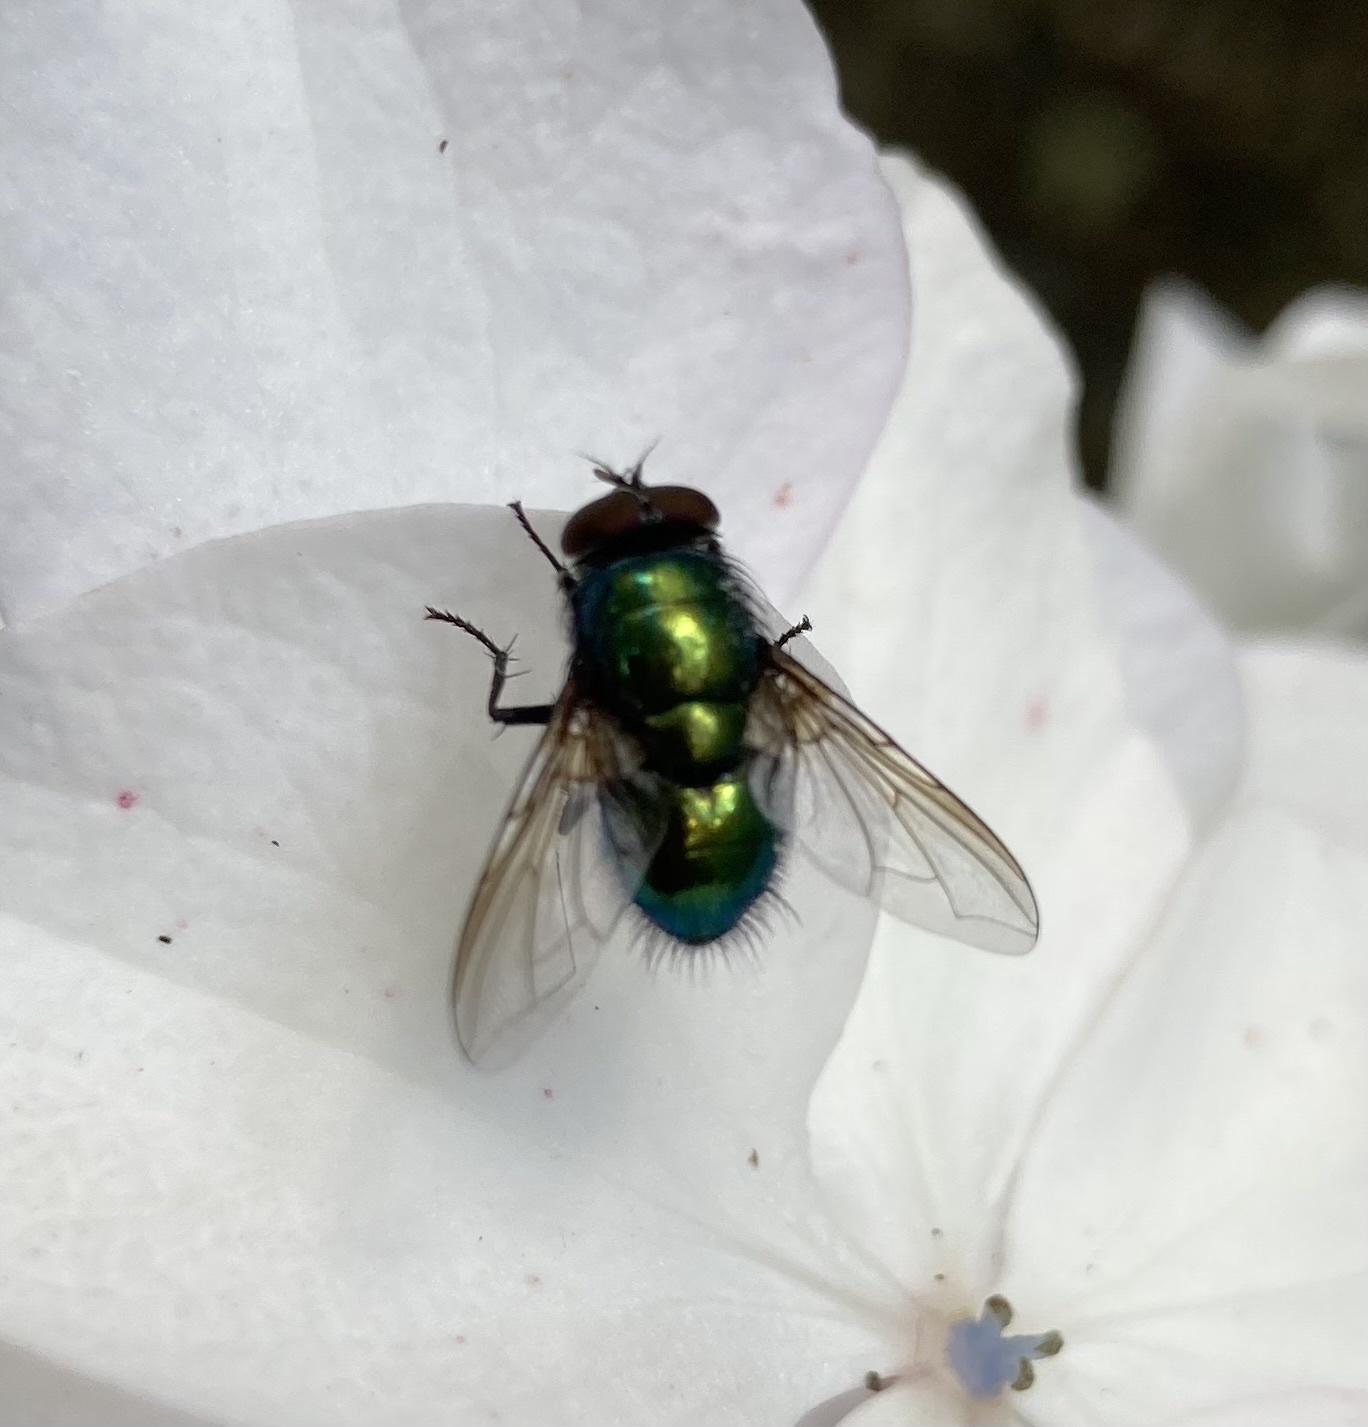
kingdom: Animalia
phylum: Arthropoda
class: Insecta
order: Diptera
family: Calliphoridae
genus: Lucilia
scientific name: Lucilia
